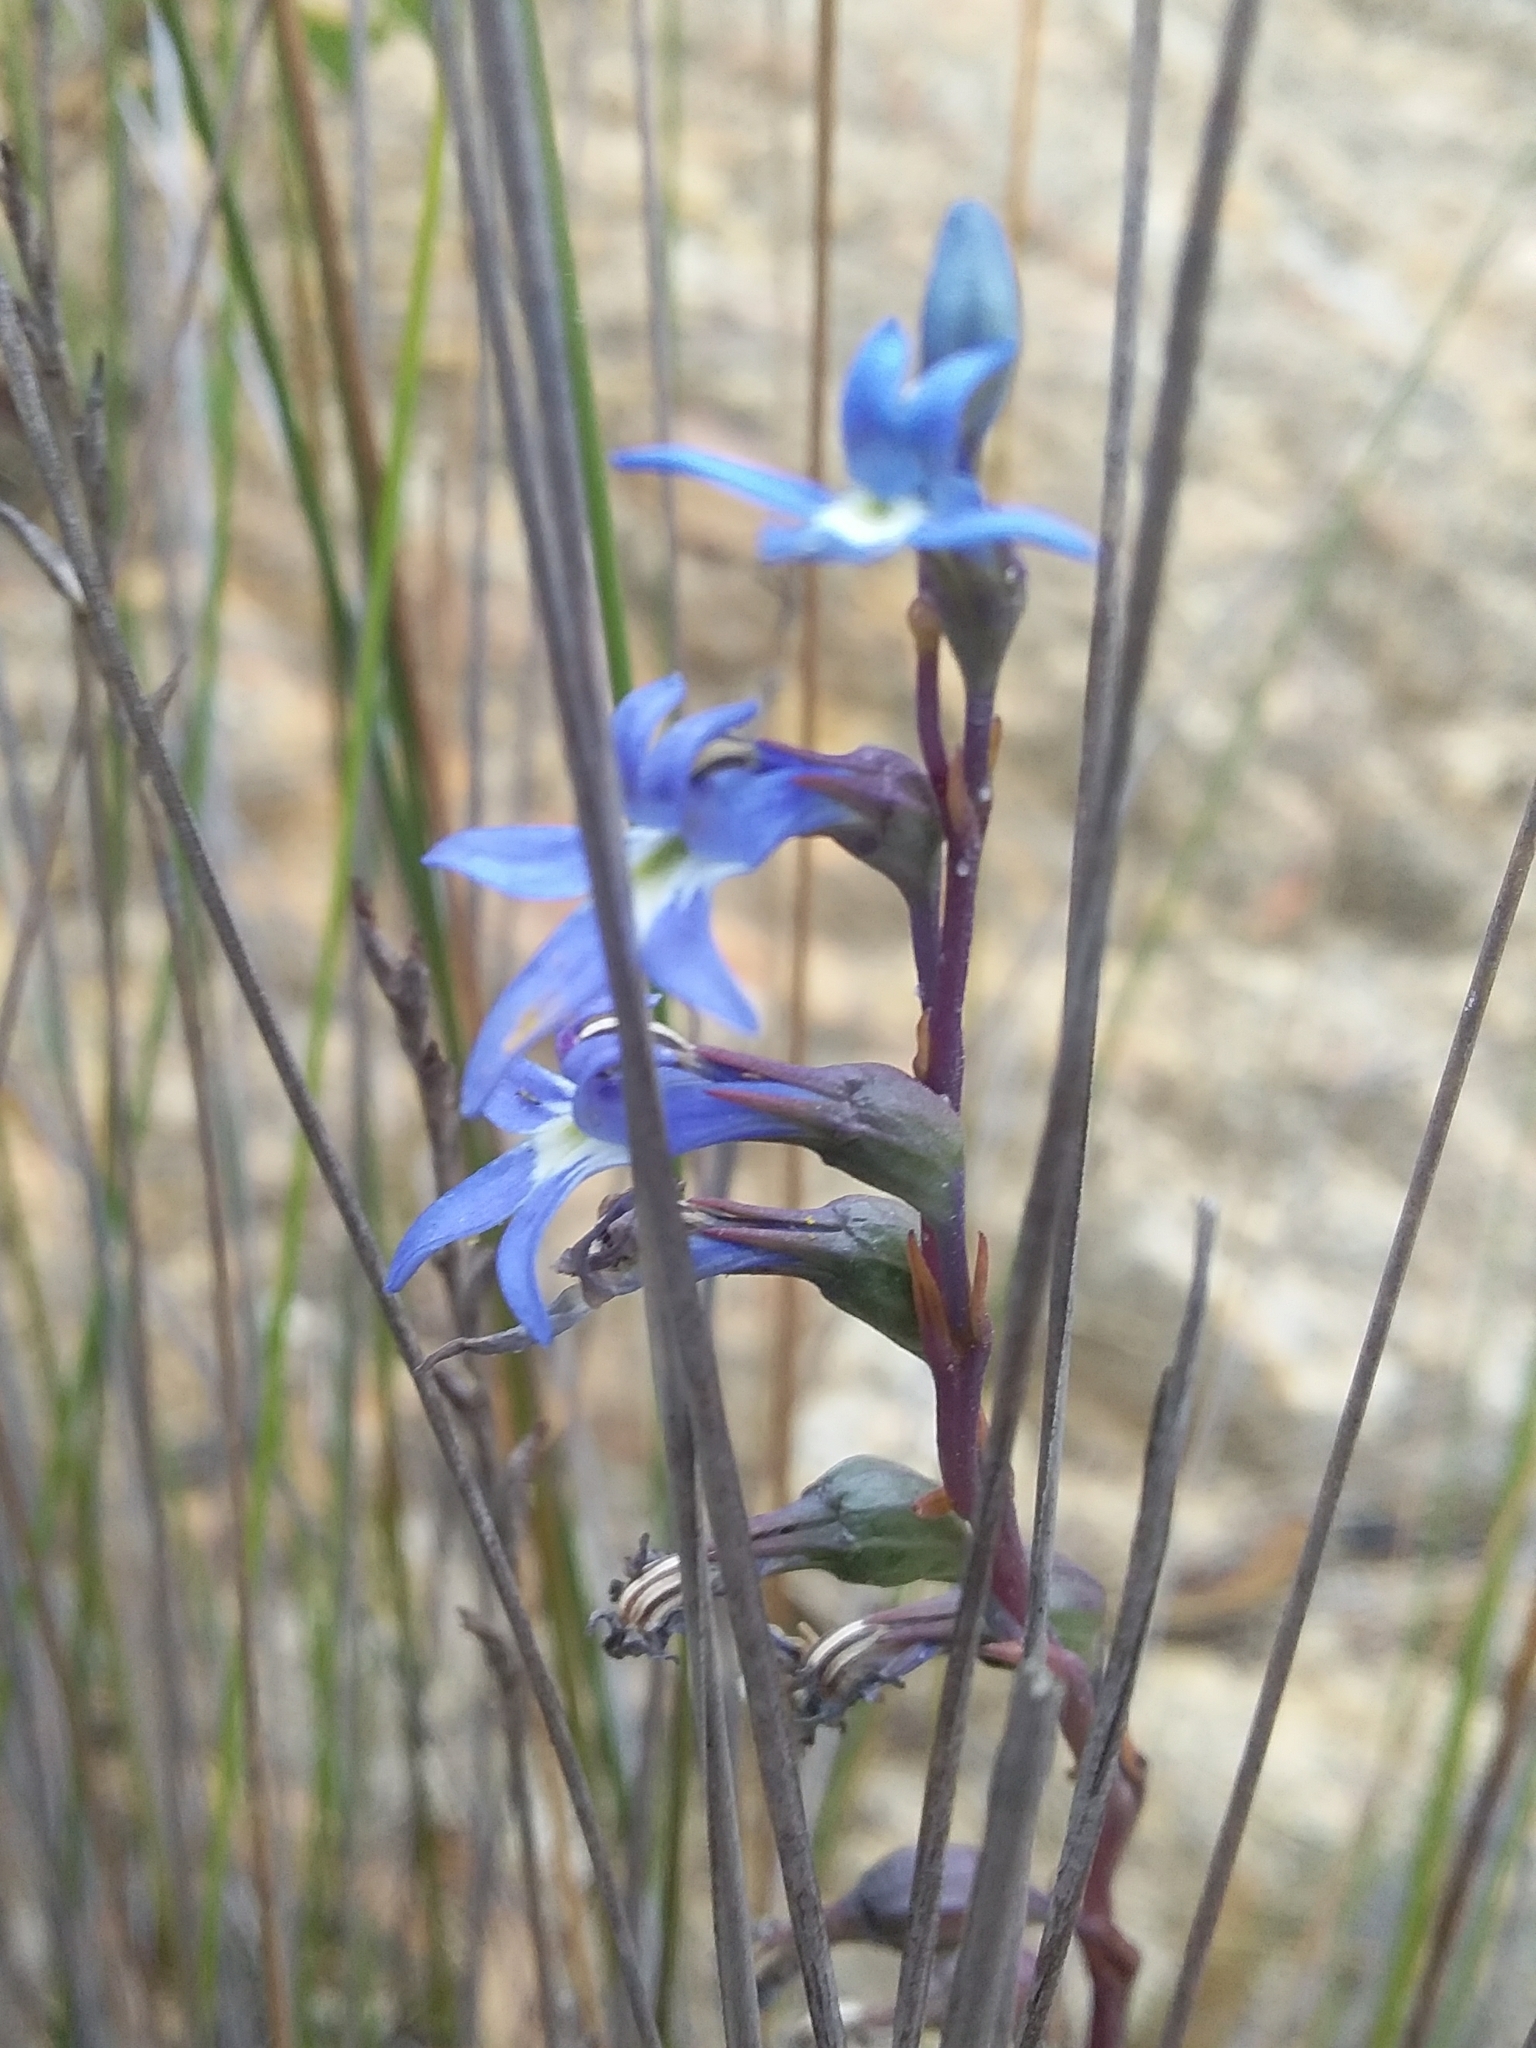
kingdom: Plantae
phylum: Tracheophyta
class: Magnoliopsida
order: Asterales
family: Campanulaceae
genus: Lobelia
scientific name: Lobelia gibbosa
